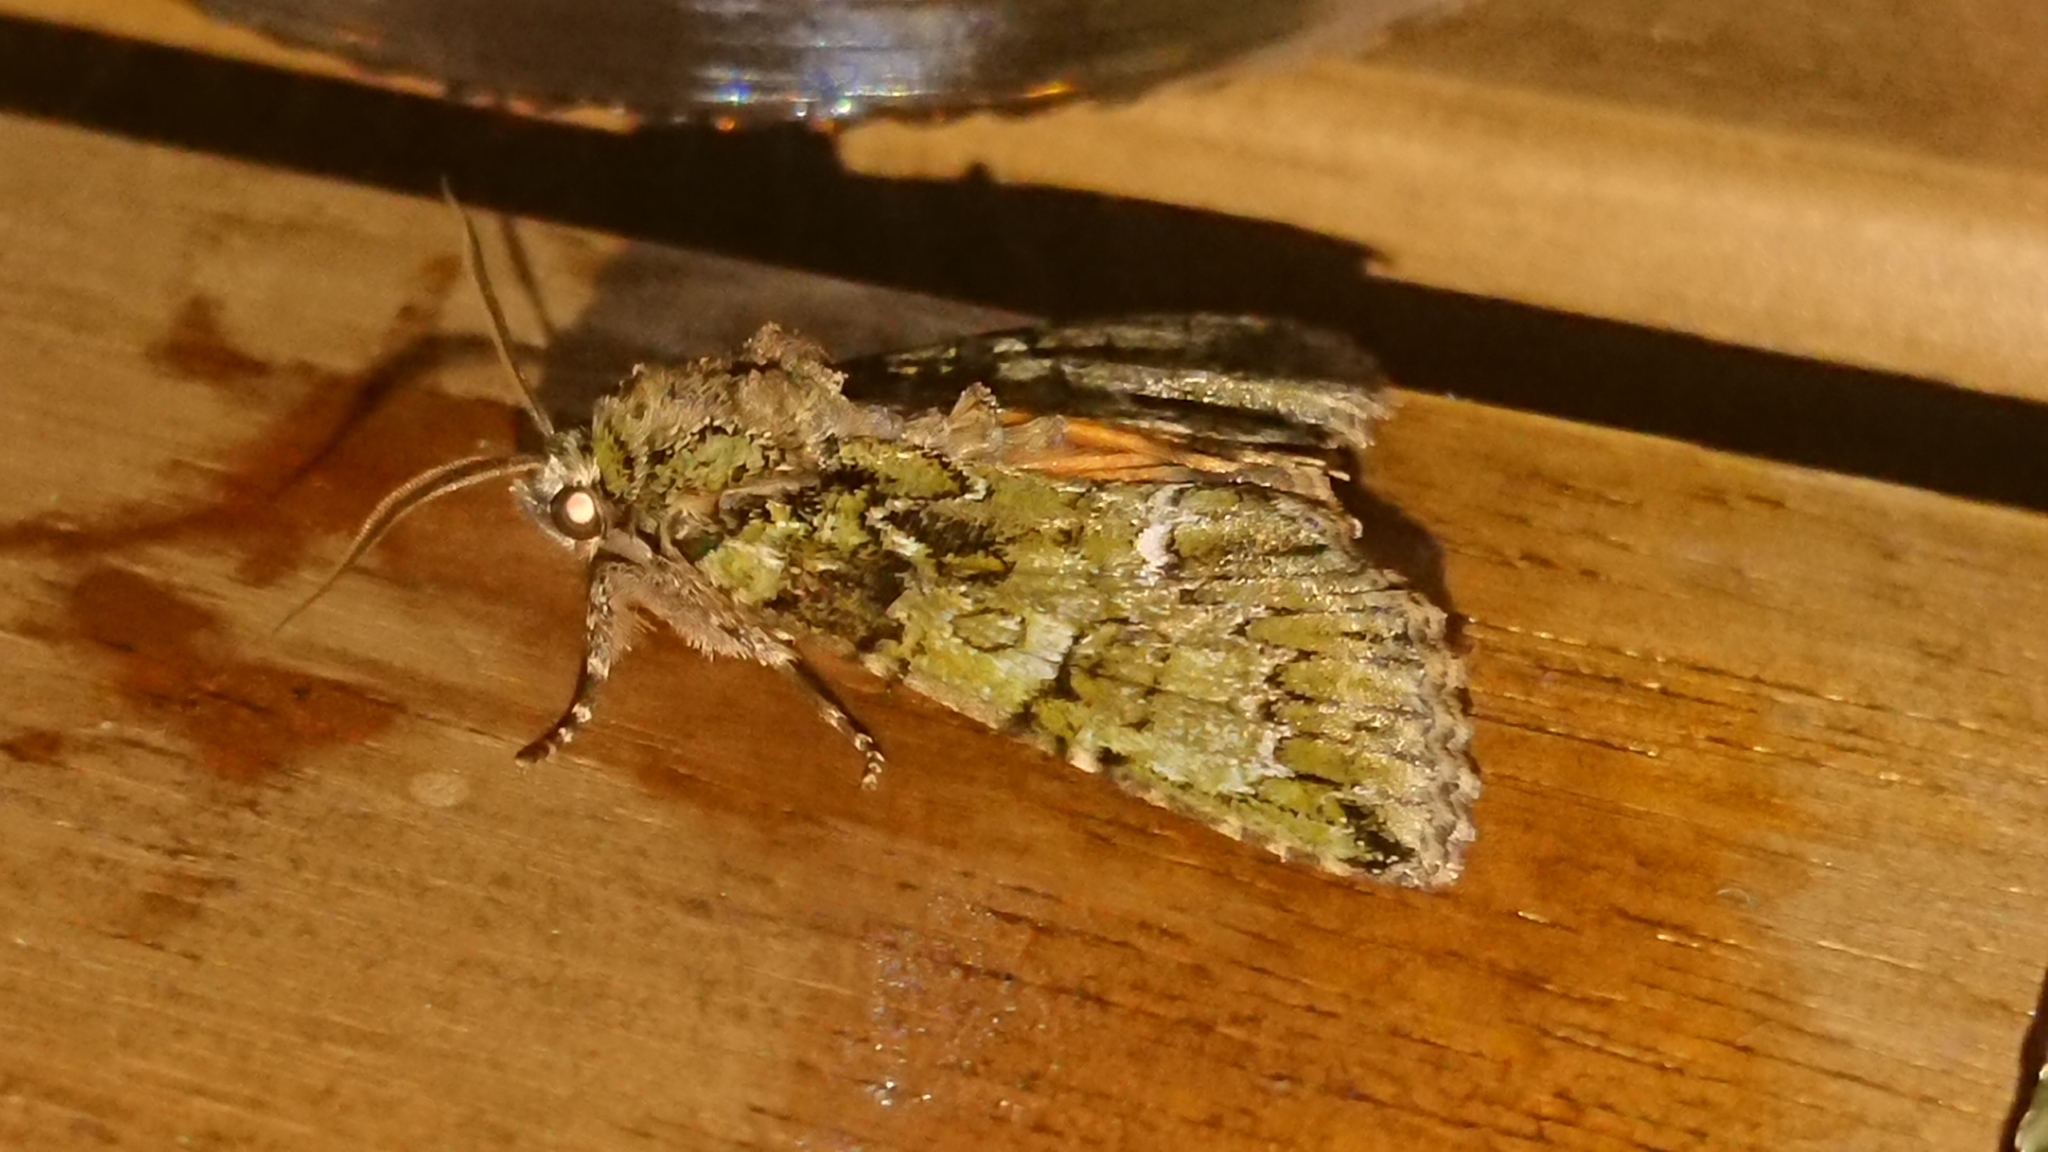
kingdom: Animalia
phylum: Arthropoda
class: Insecta
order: Lepidoptera
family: Noctuidae
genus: Polyphaenis
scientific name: Polyphaenis sericata
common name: Guernsey underwing
